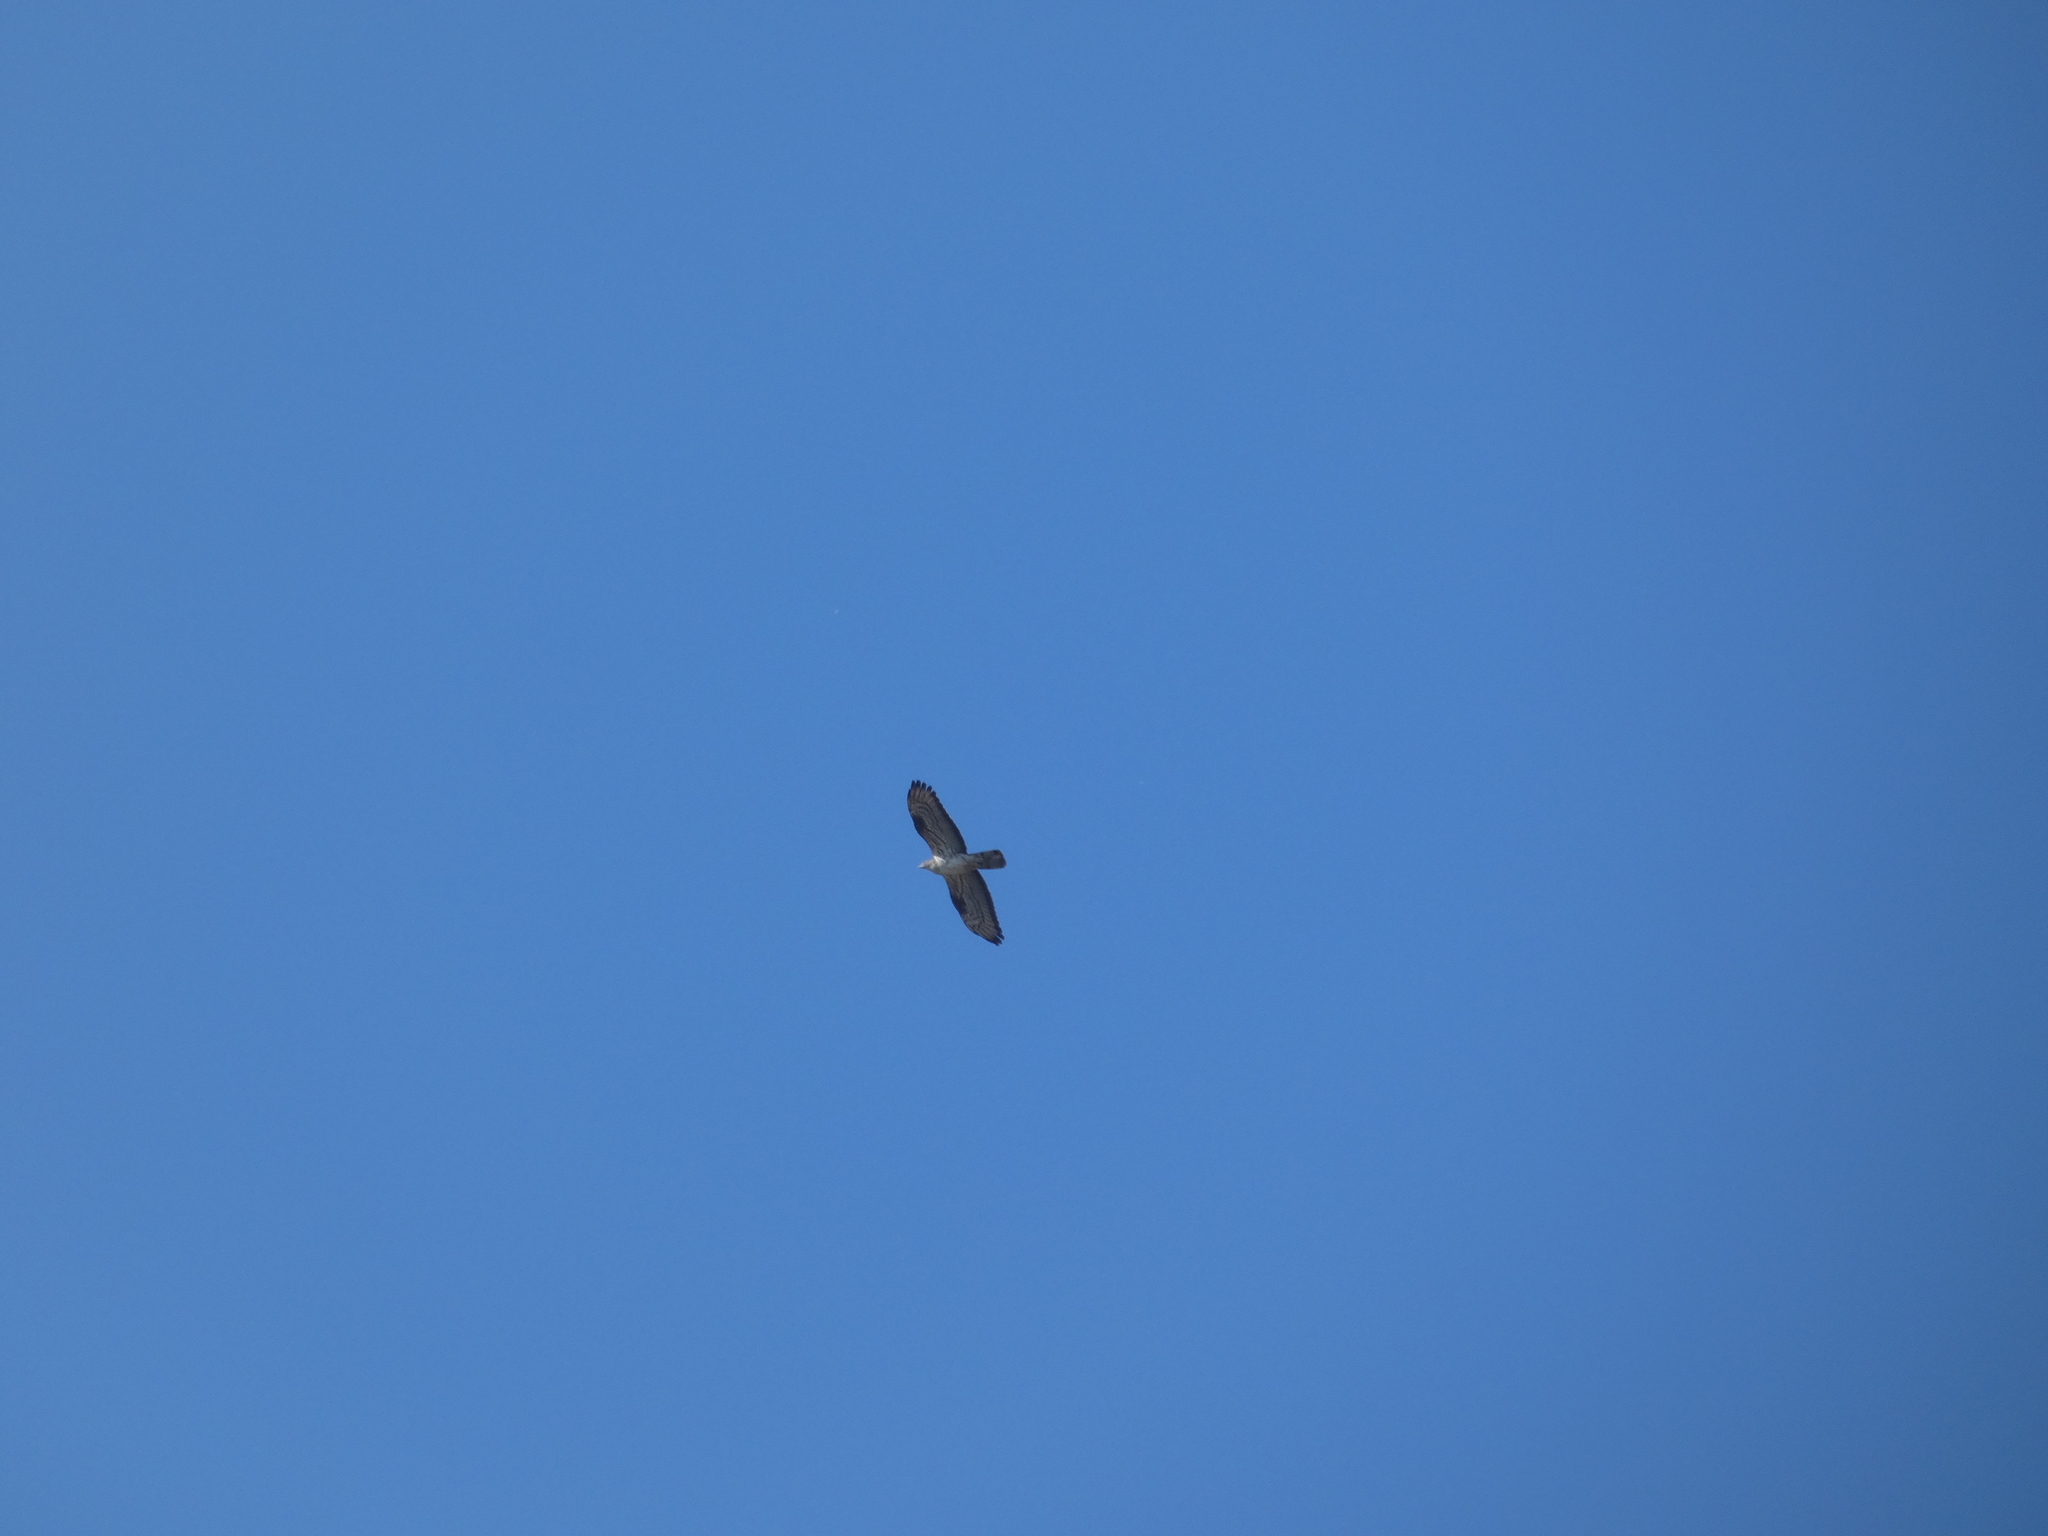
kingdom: Animalia
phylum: Chordata
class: Aves
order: Accipitriformes
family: Accipitridae
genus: Pernis
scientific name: Pernis apivorus
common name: European honey buzzard
